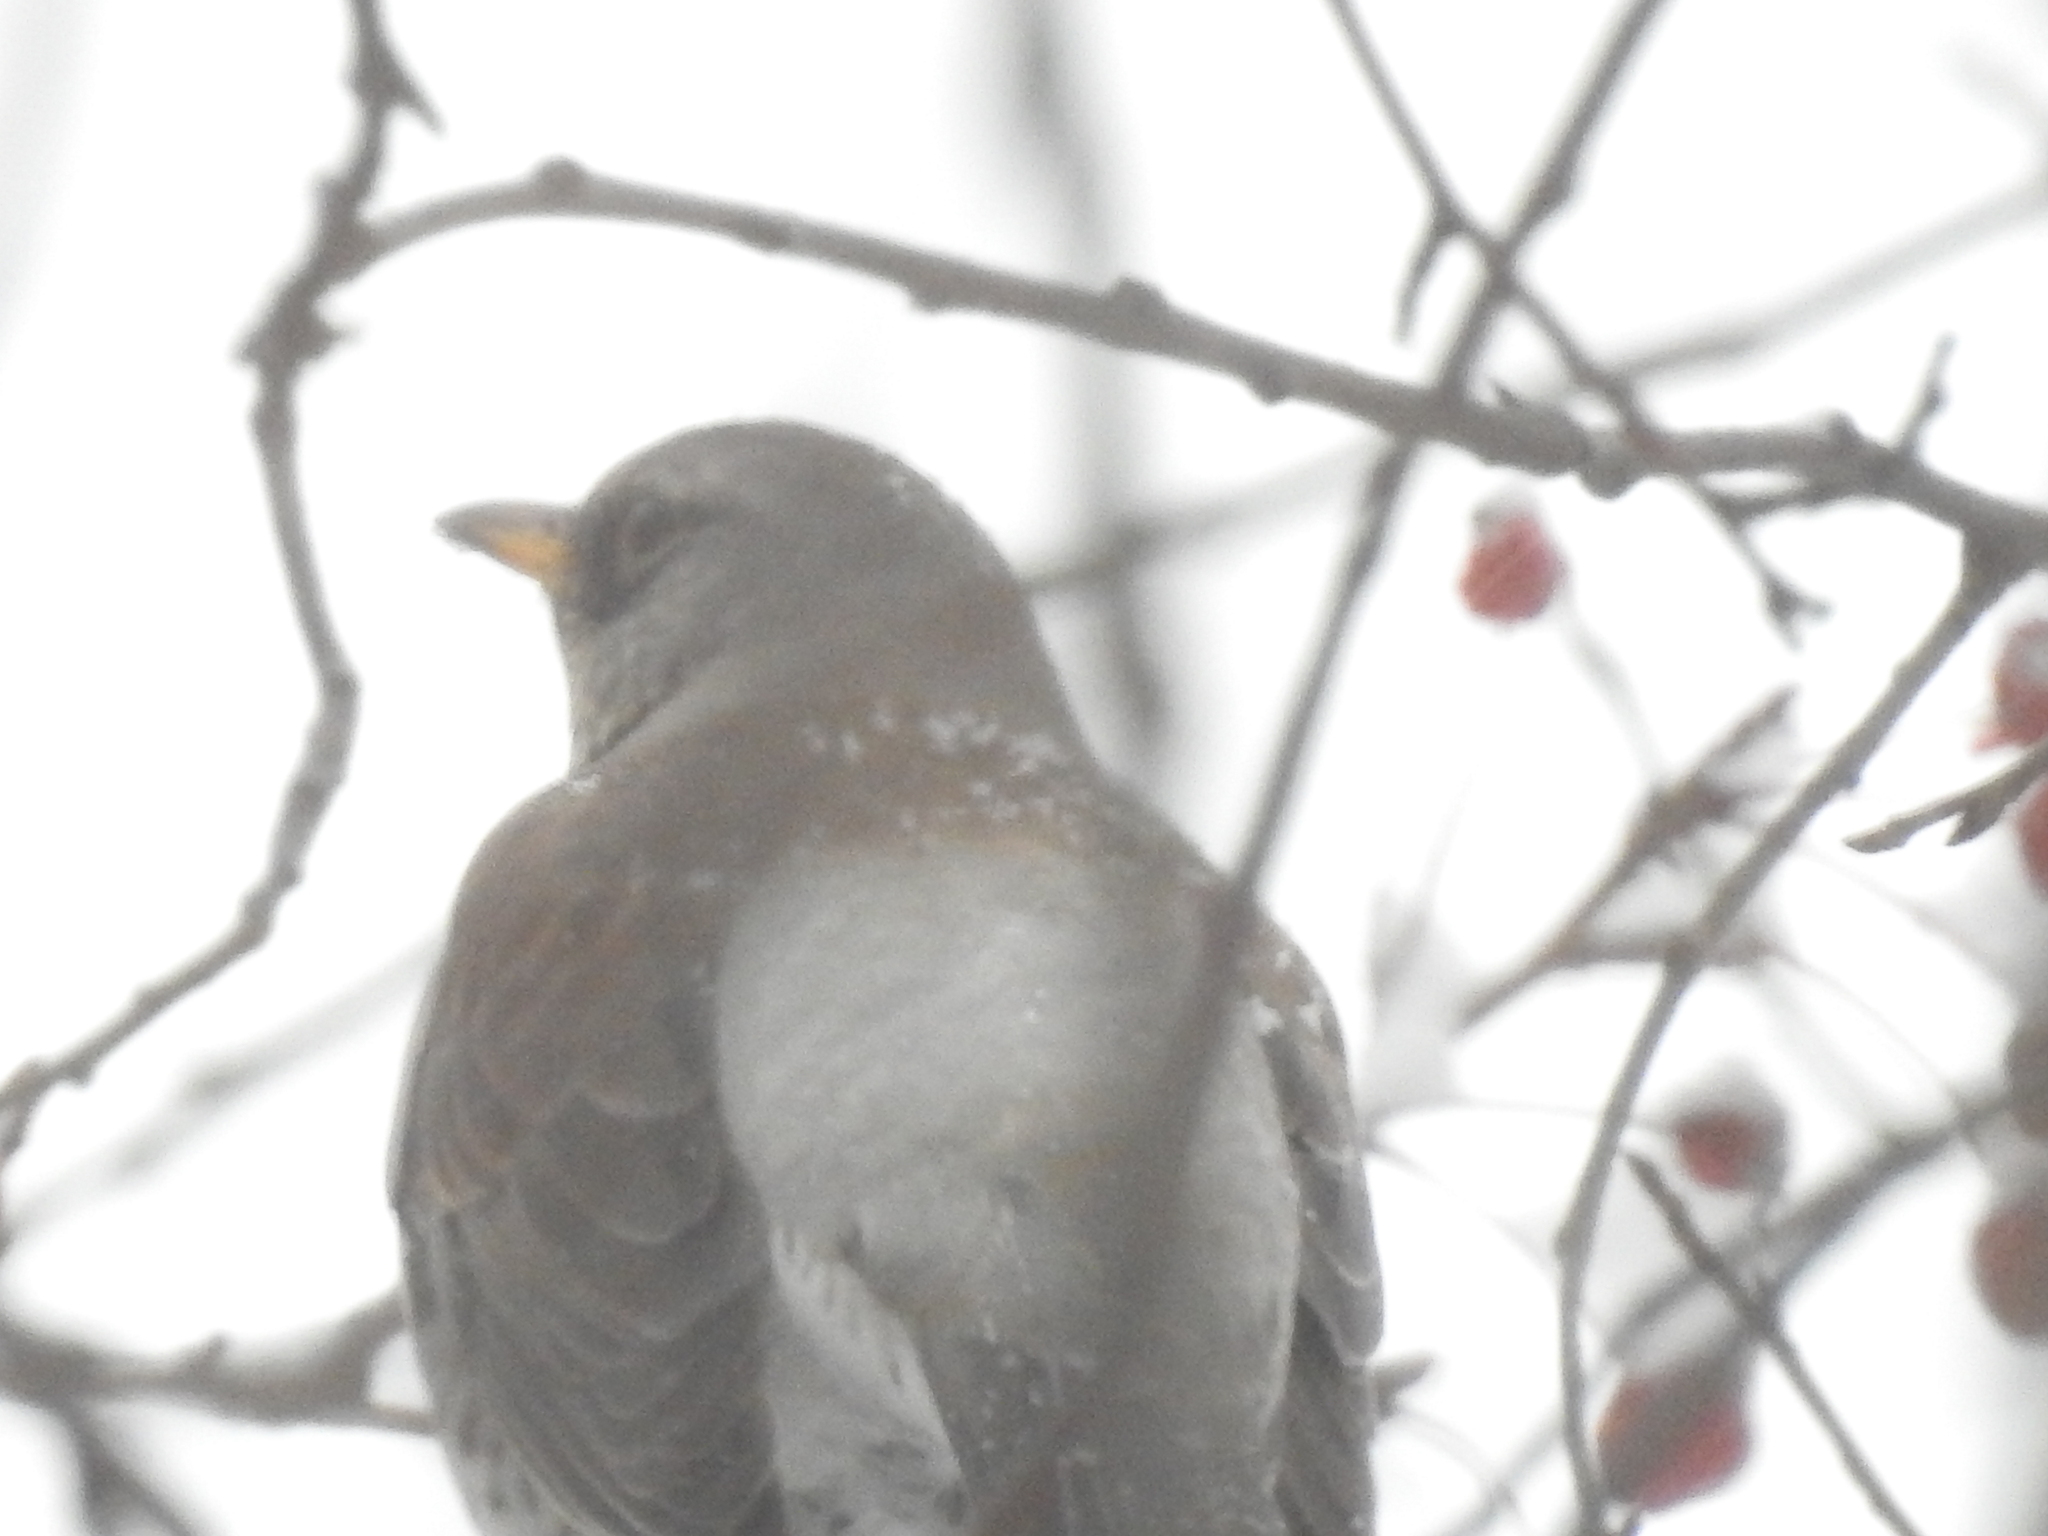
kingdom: Animalia
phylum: Chordata
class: Aves
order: Passeriformes
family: Turdidae
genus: Turdus
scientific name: Turdus pilaris
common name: Fieldfare
